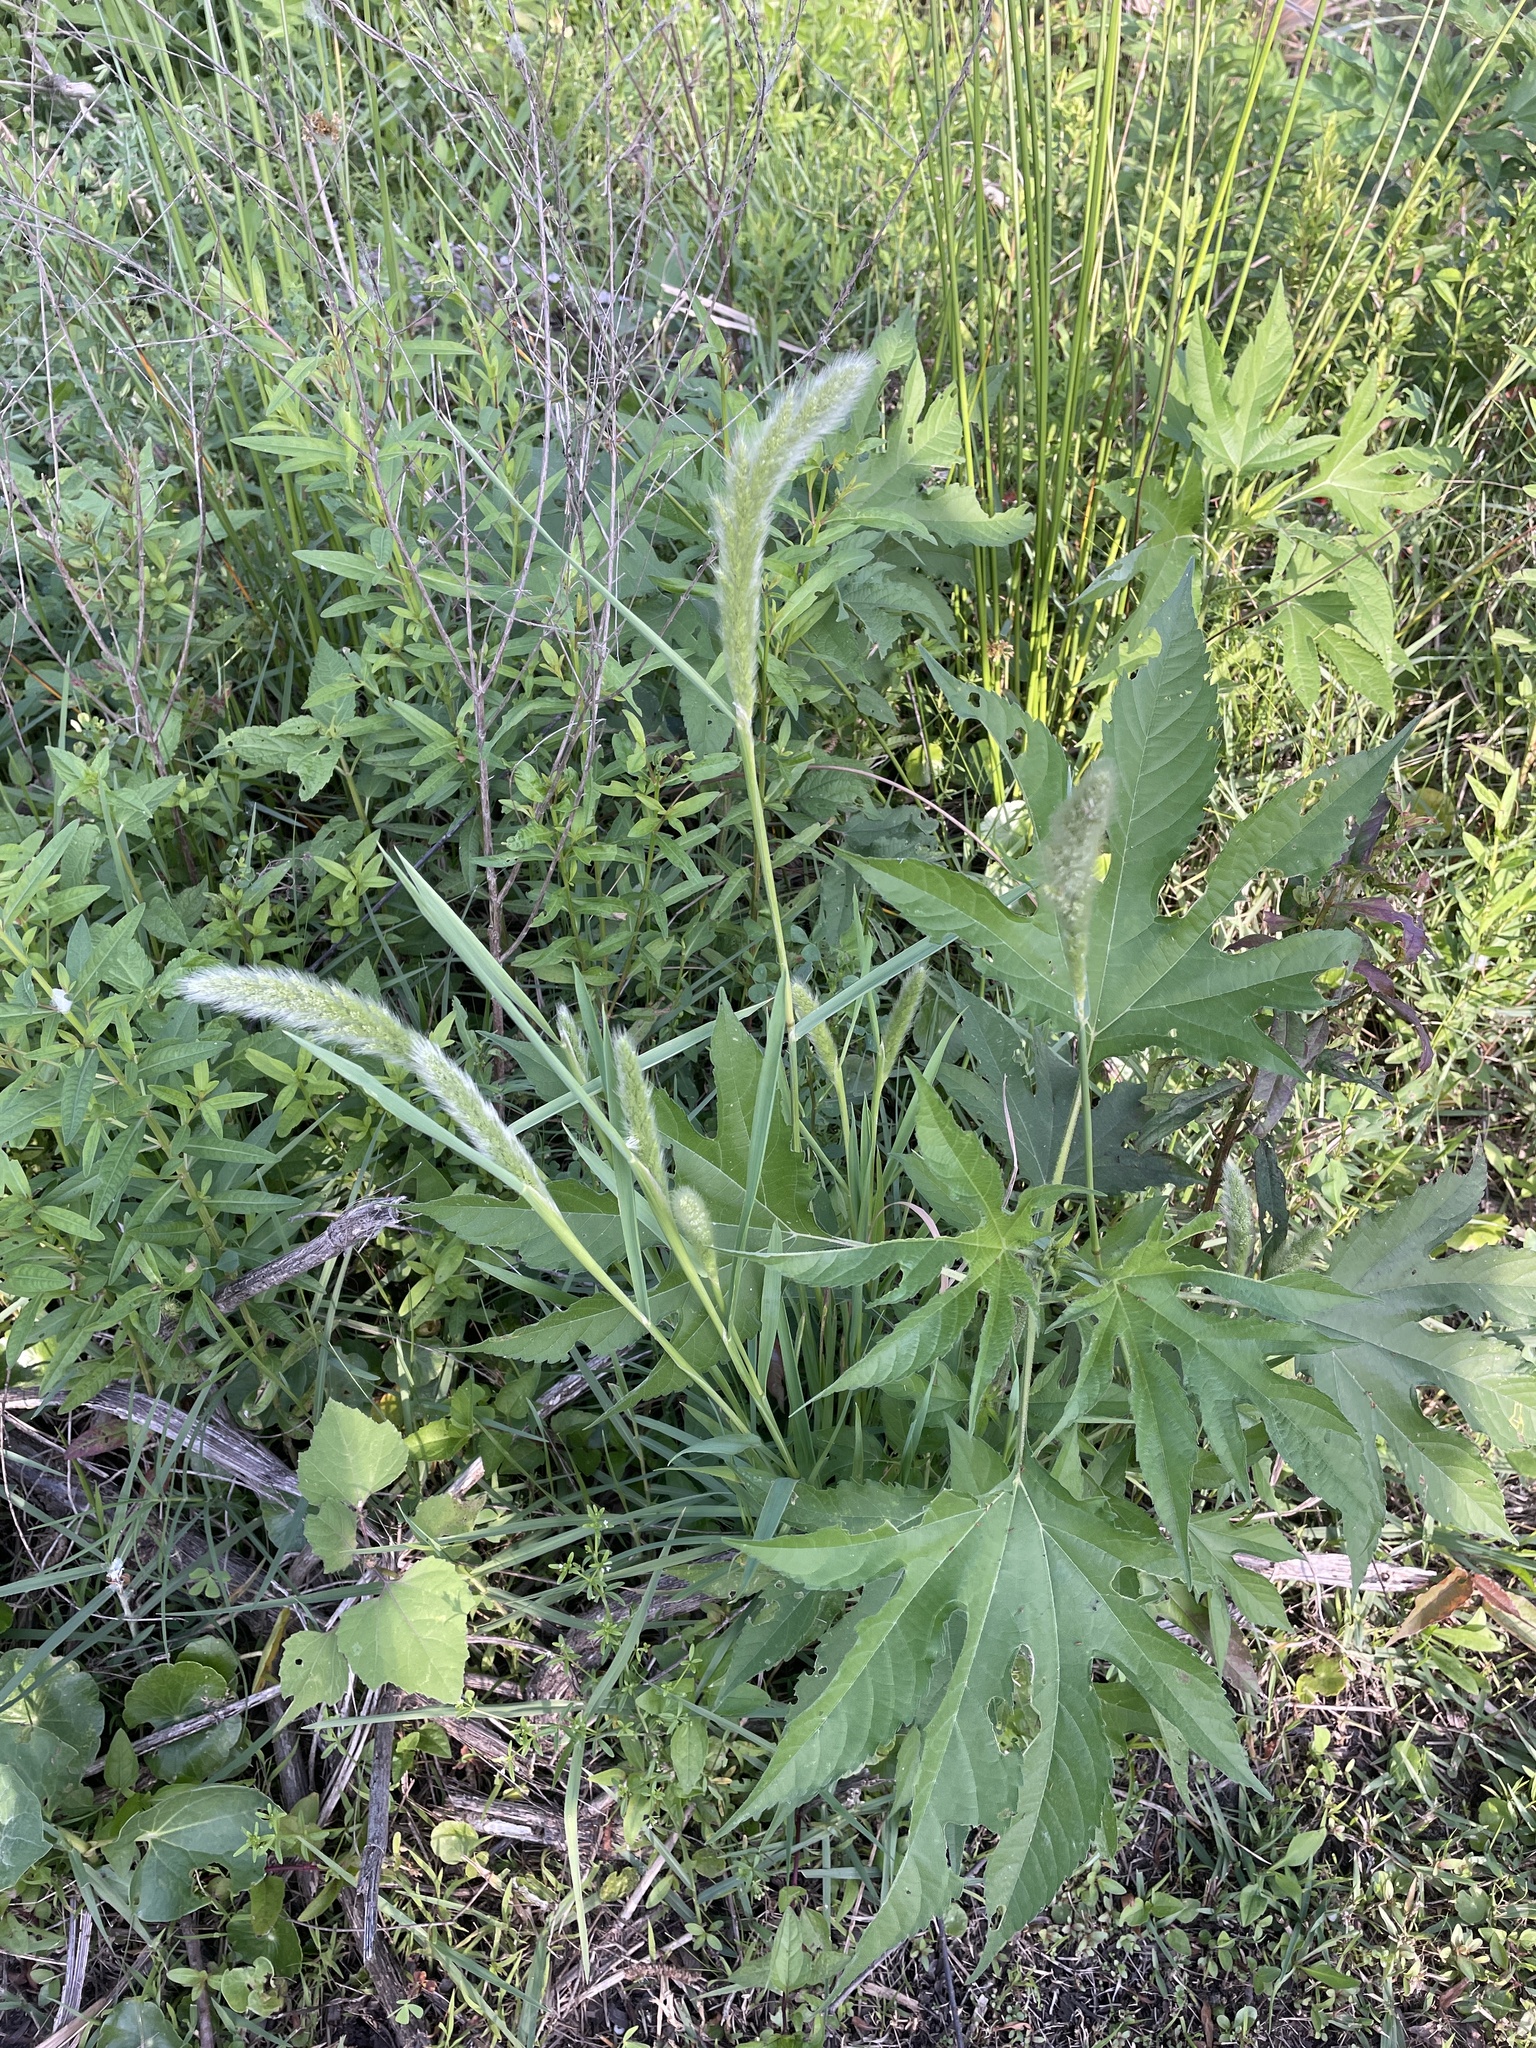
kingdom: Plantae
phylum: Tracheophyta
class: Liliopsida
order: Poales
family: Poaceae
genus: Polypogon
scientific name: Polypogon monspeliensis
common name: Annual rabbitsfoot grass
